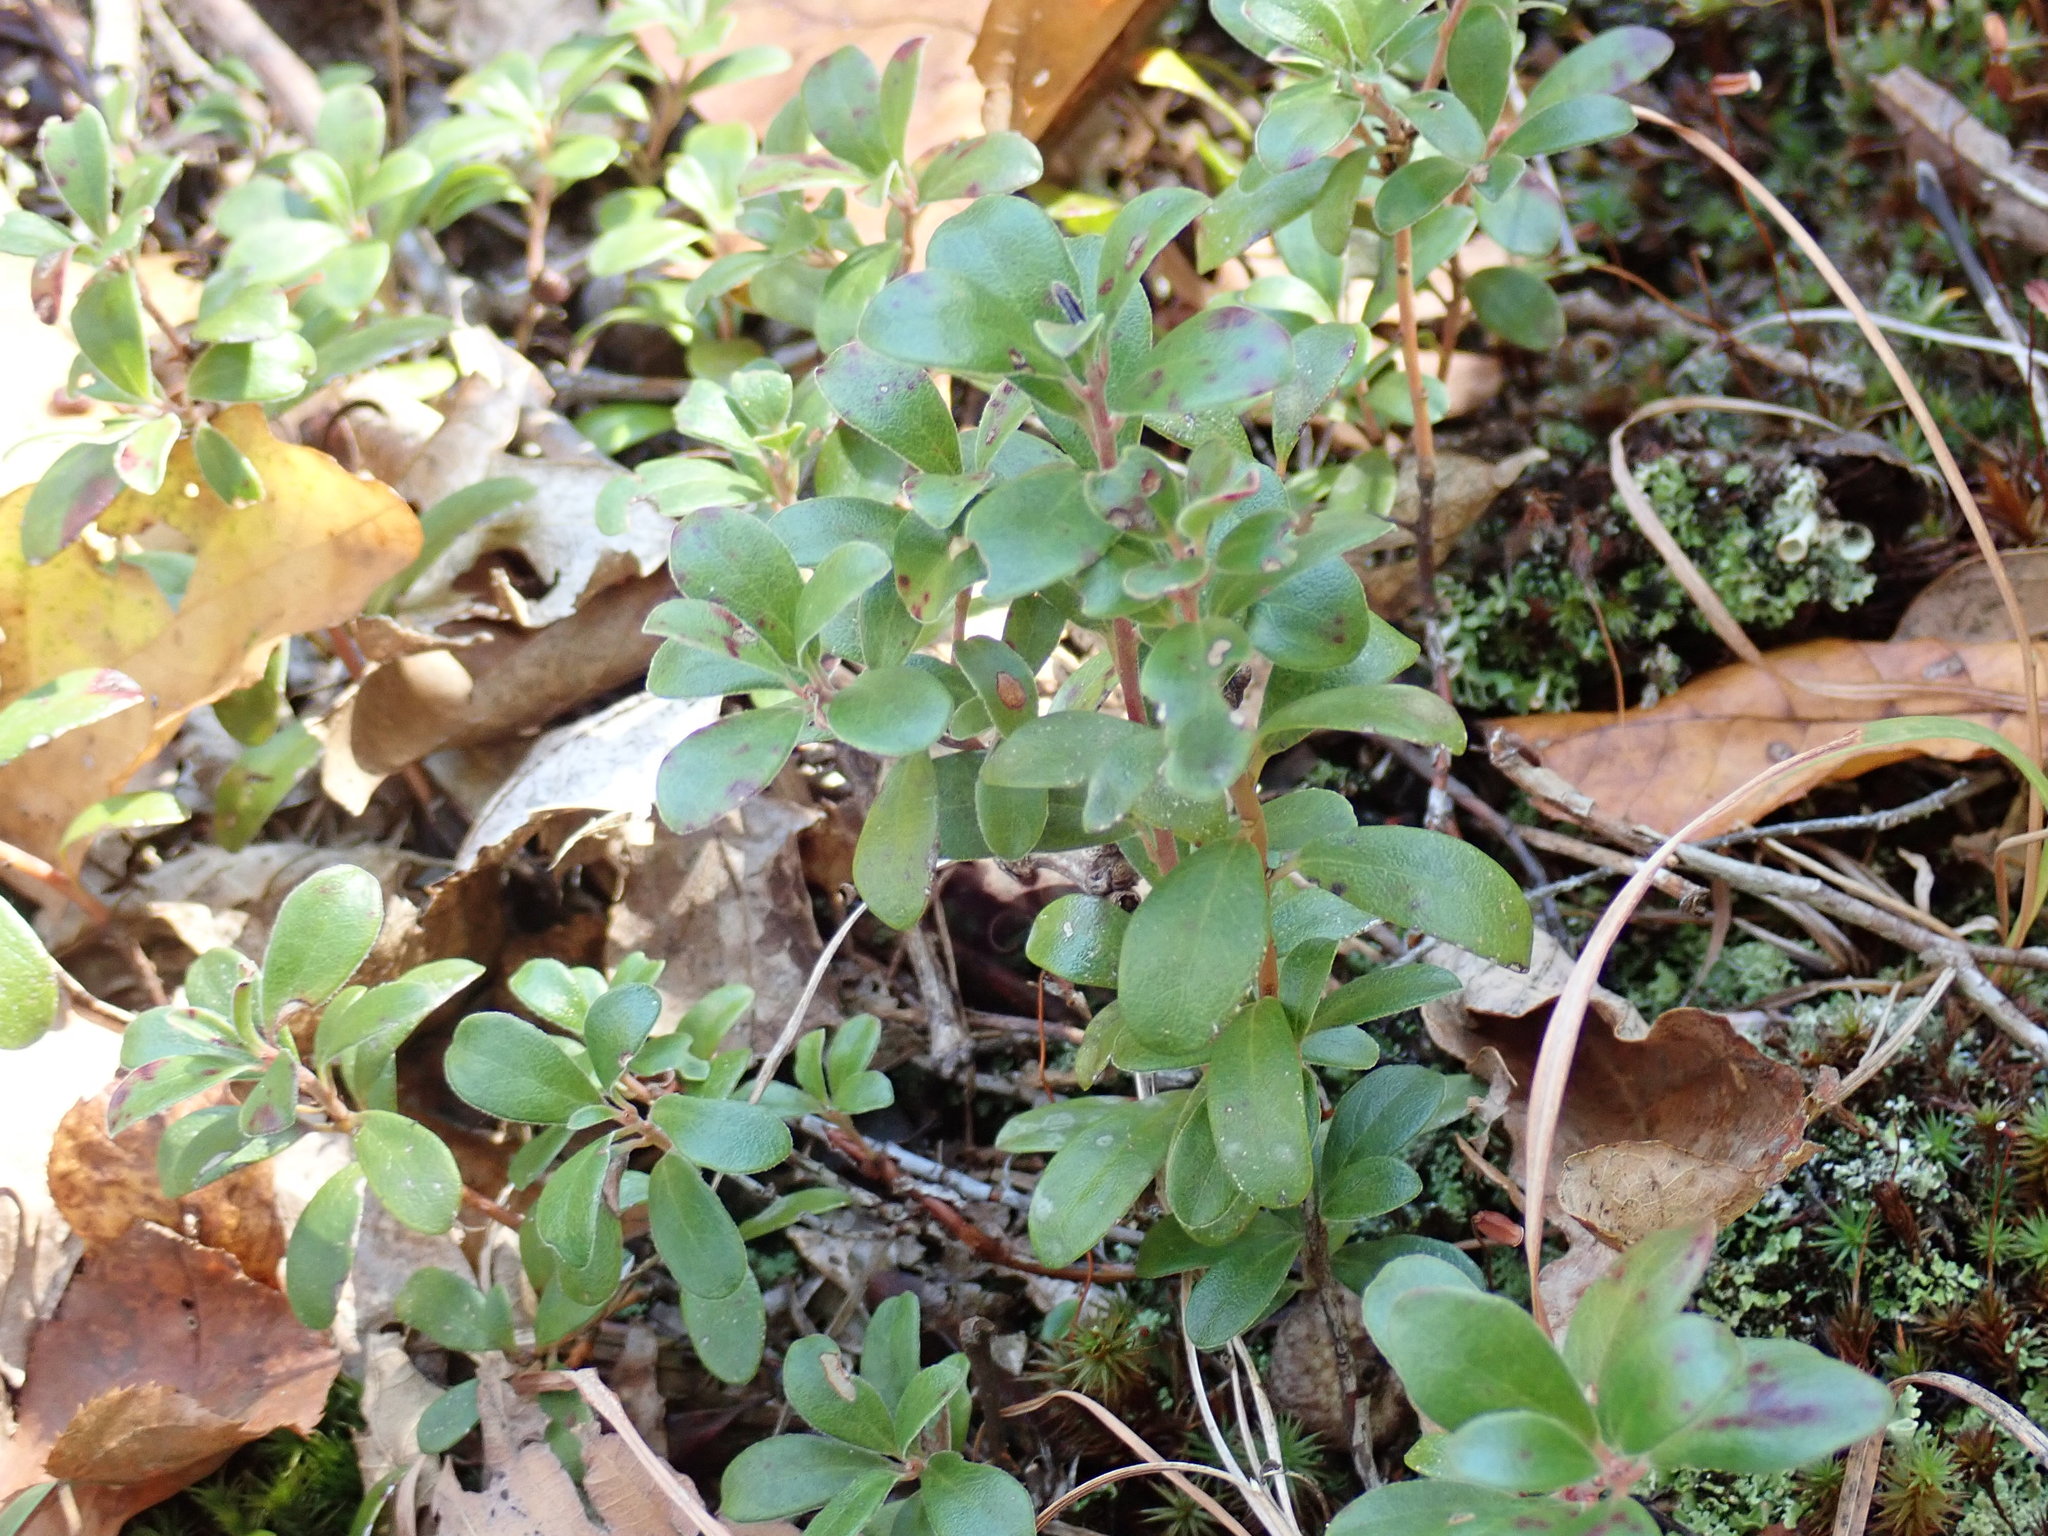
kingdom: Plantae
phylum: Tracheophyta
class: Magnoliopsida
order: Ericales
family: Ericaceae
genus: Arctostaphylos
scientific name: Arctostaphylos uva-ursi
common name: Bearberry
